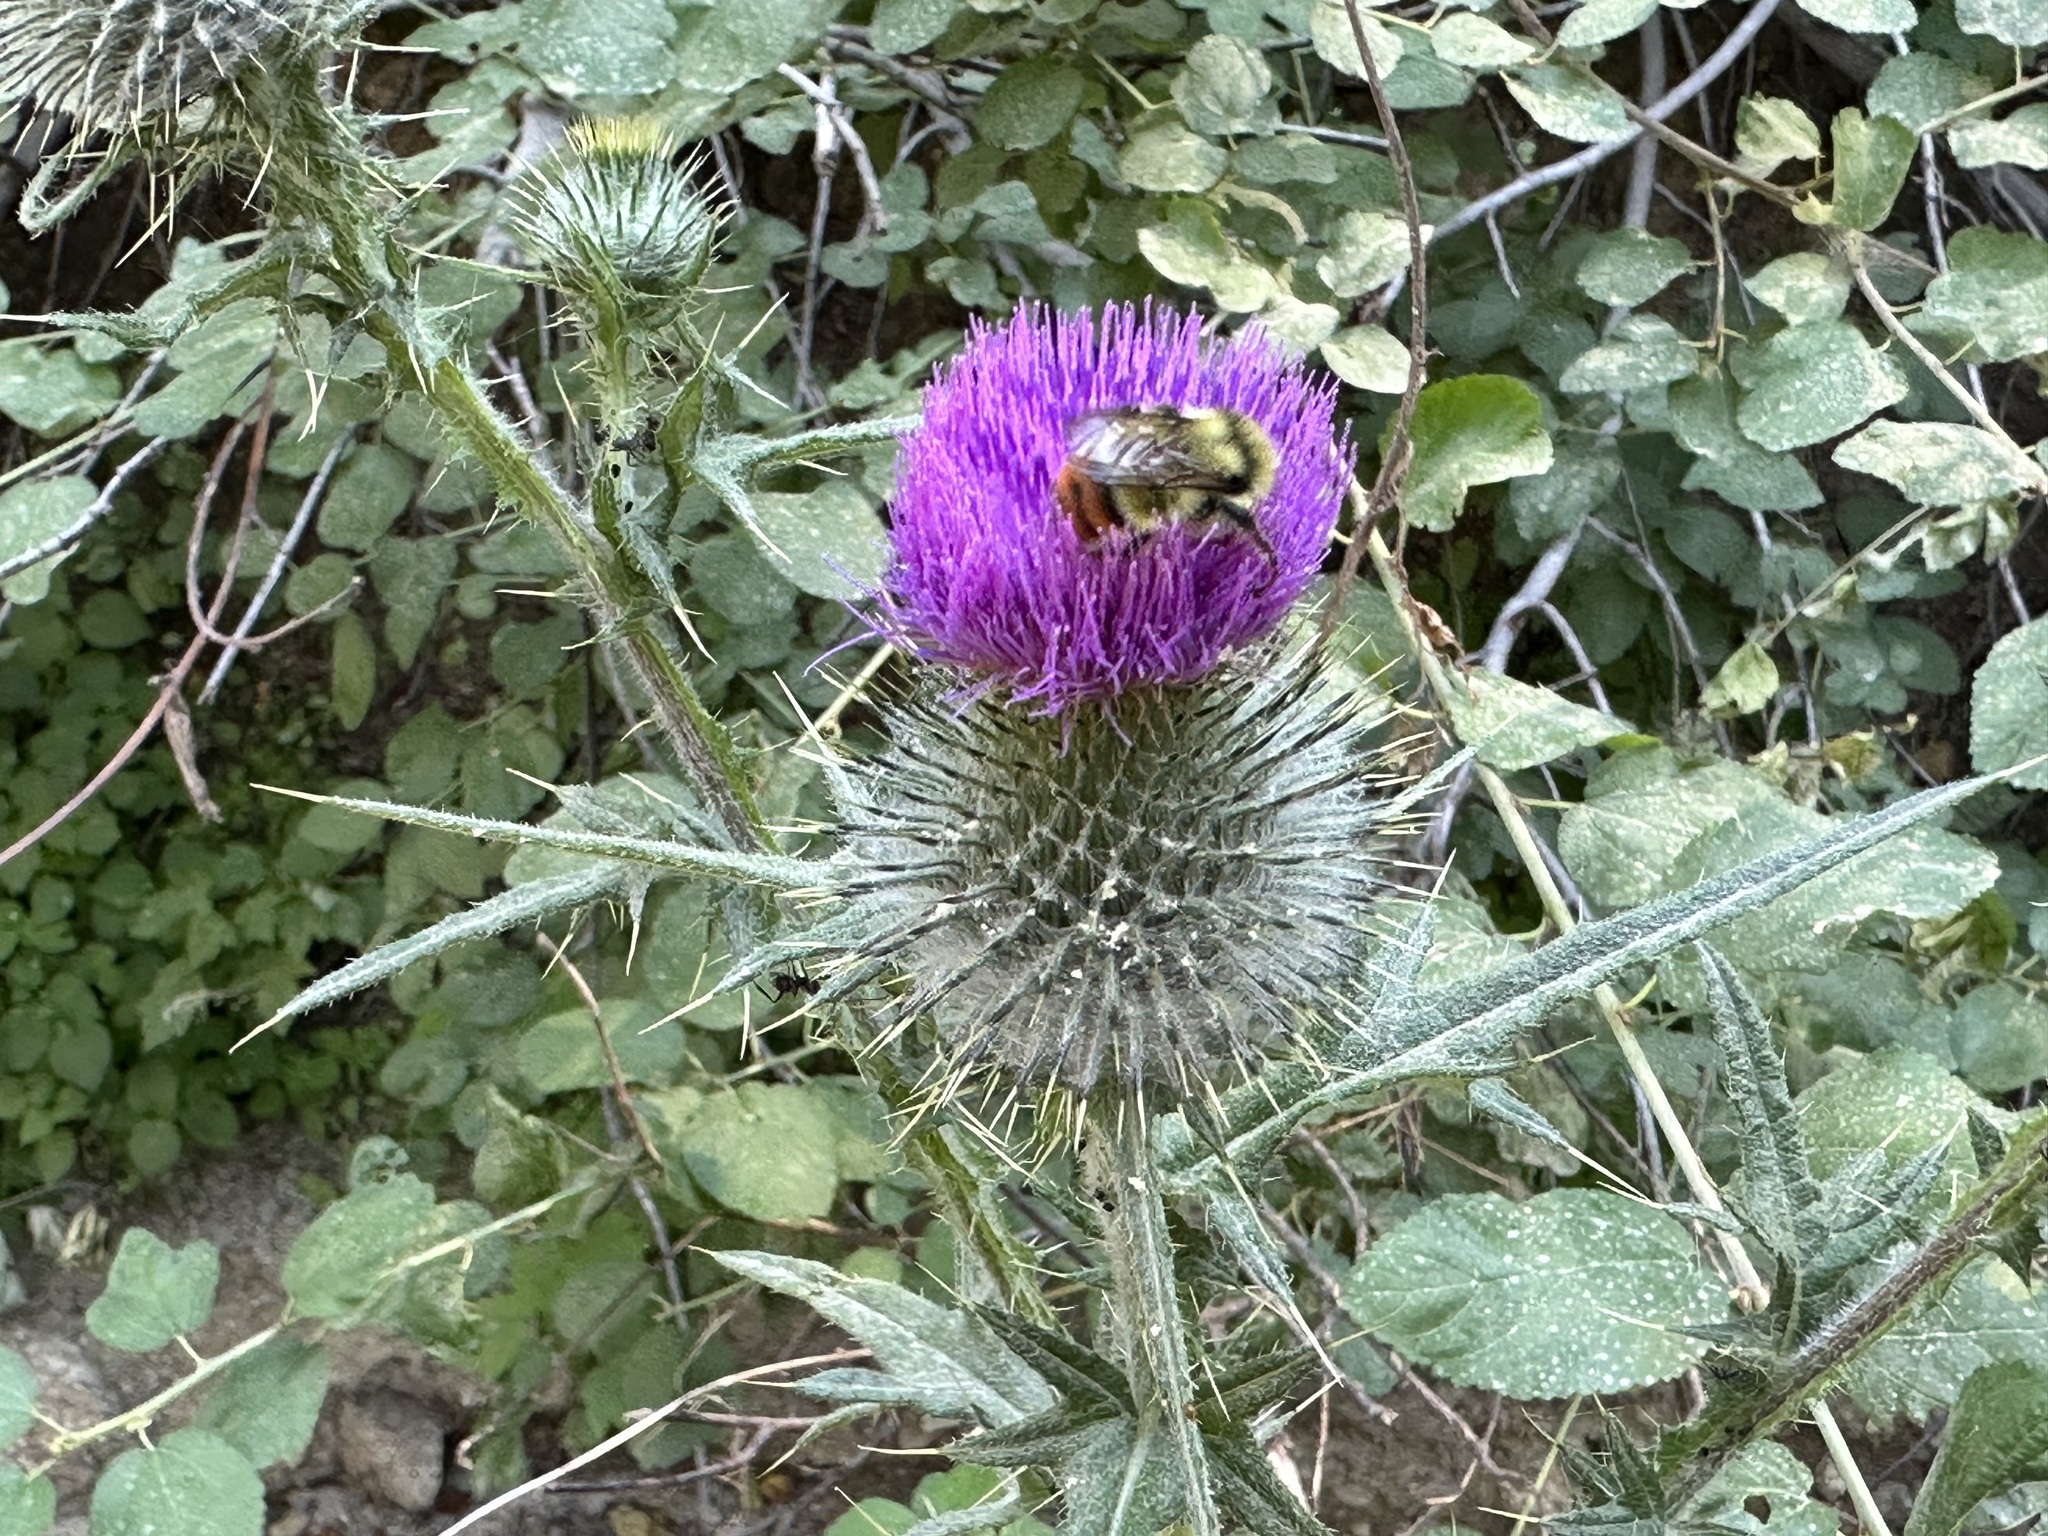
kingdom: Animalia
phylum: Arthropoda
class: Insecta
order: Hymenoptera
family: Apidae
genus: Bombus
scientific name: Bombus centralis
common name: Central bumble bee
